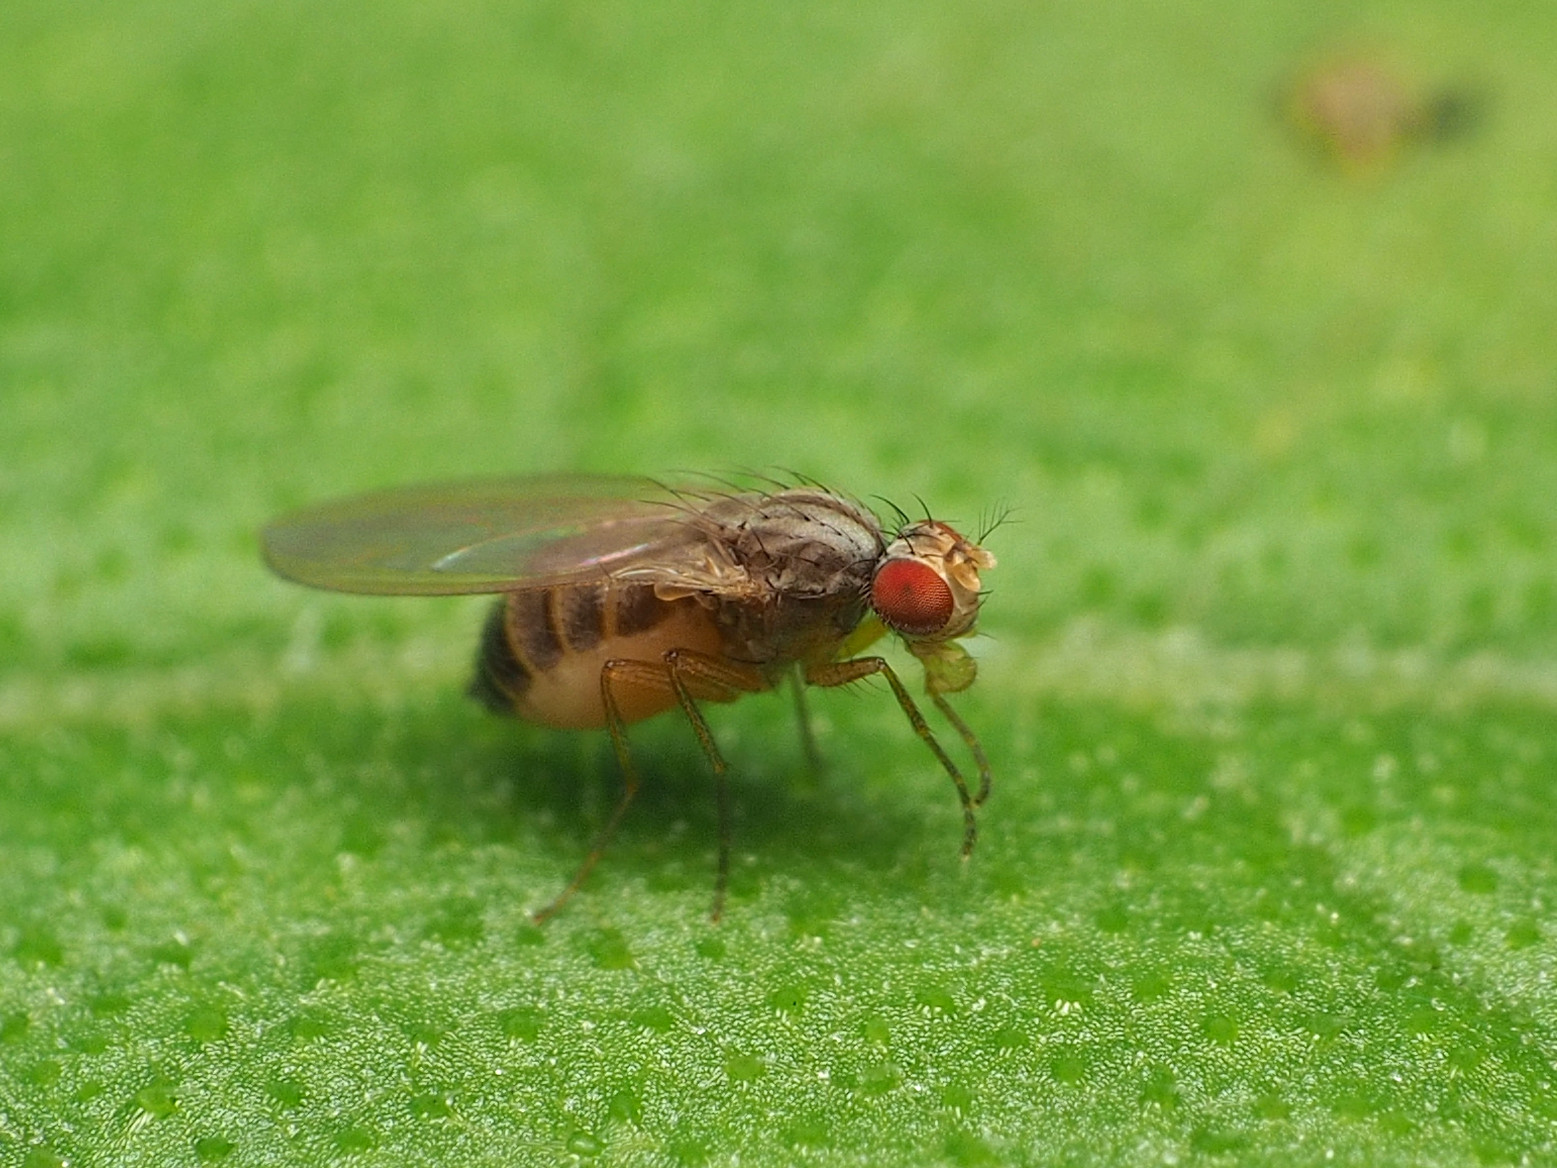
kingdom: Animalia
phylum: Arthropoda
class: Insecta
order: Diptera
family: Drosophilidae
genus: Scaptomyza
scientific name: Scaptomyza pallida
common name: Pomace fly
